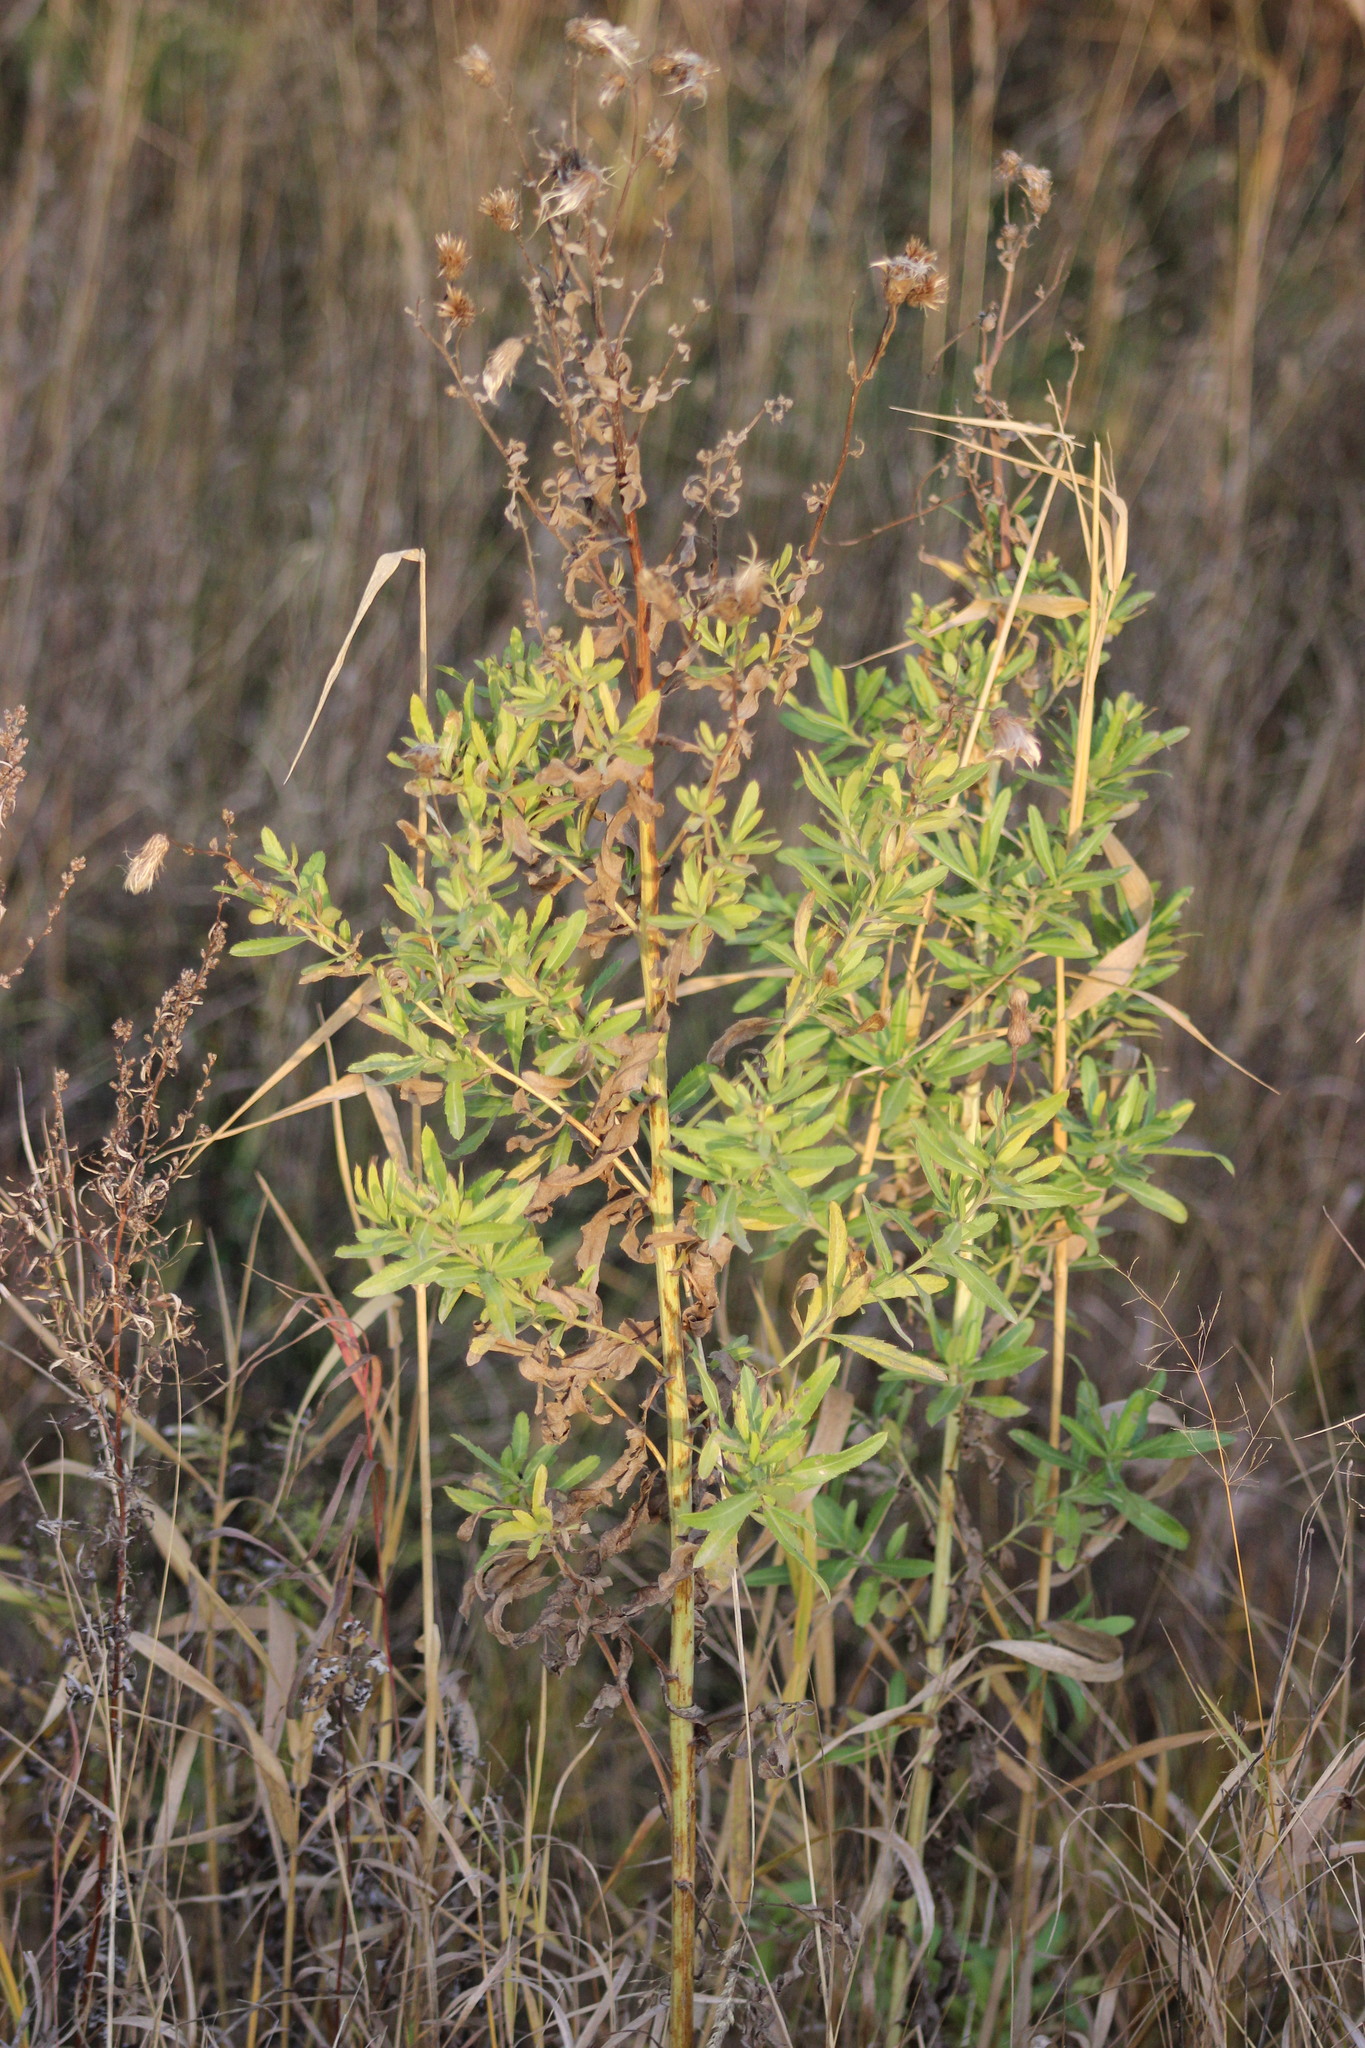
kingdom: Plantae
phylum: Tracheophyta
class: Magnoliopsida
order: Asterales
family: Asteraceae
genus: Cirsium
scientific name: Cirsium arvense
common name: Creeping thistle
